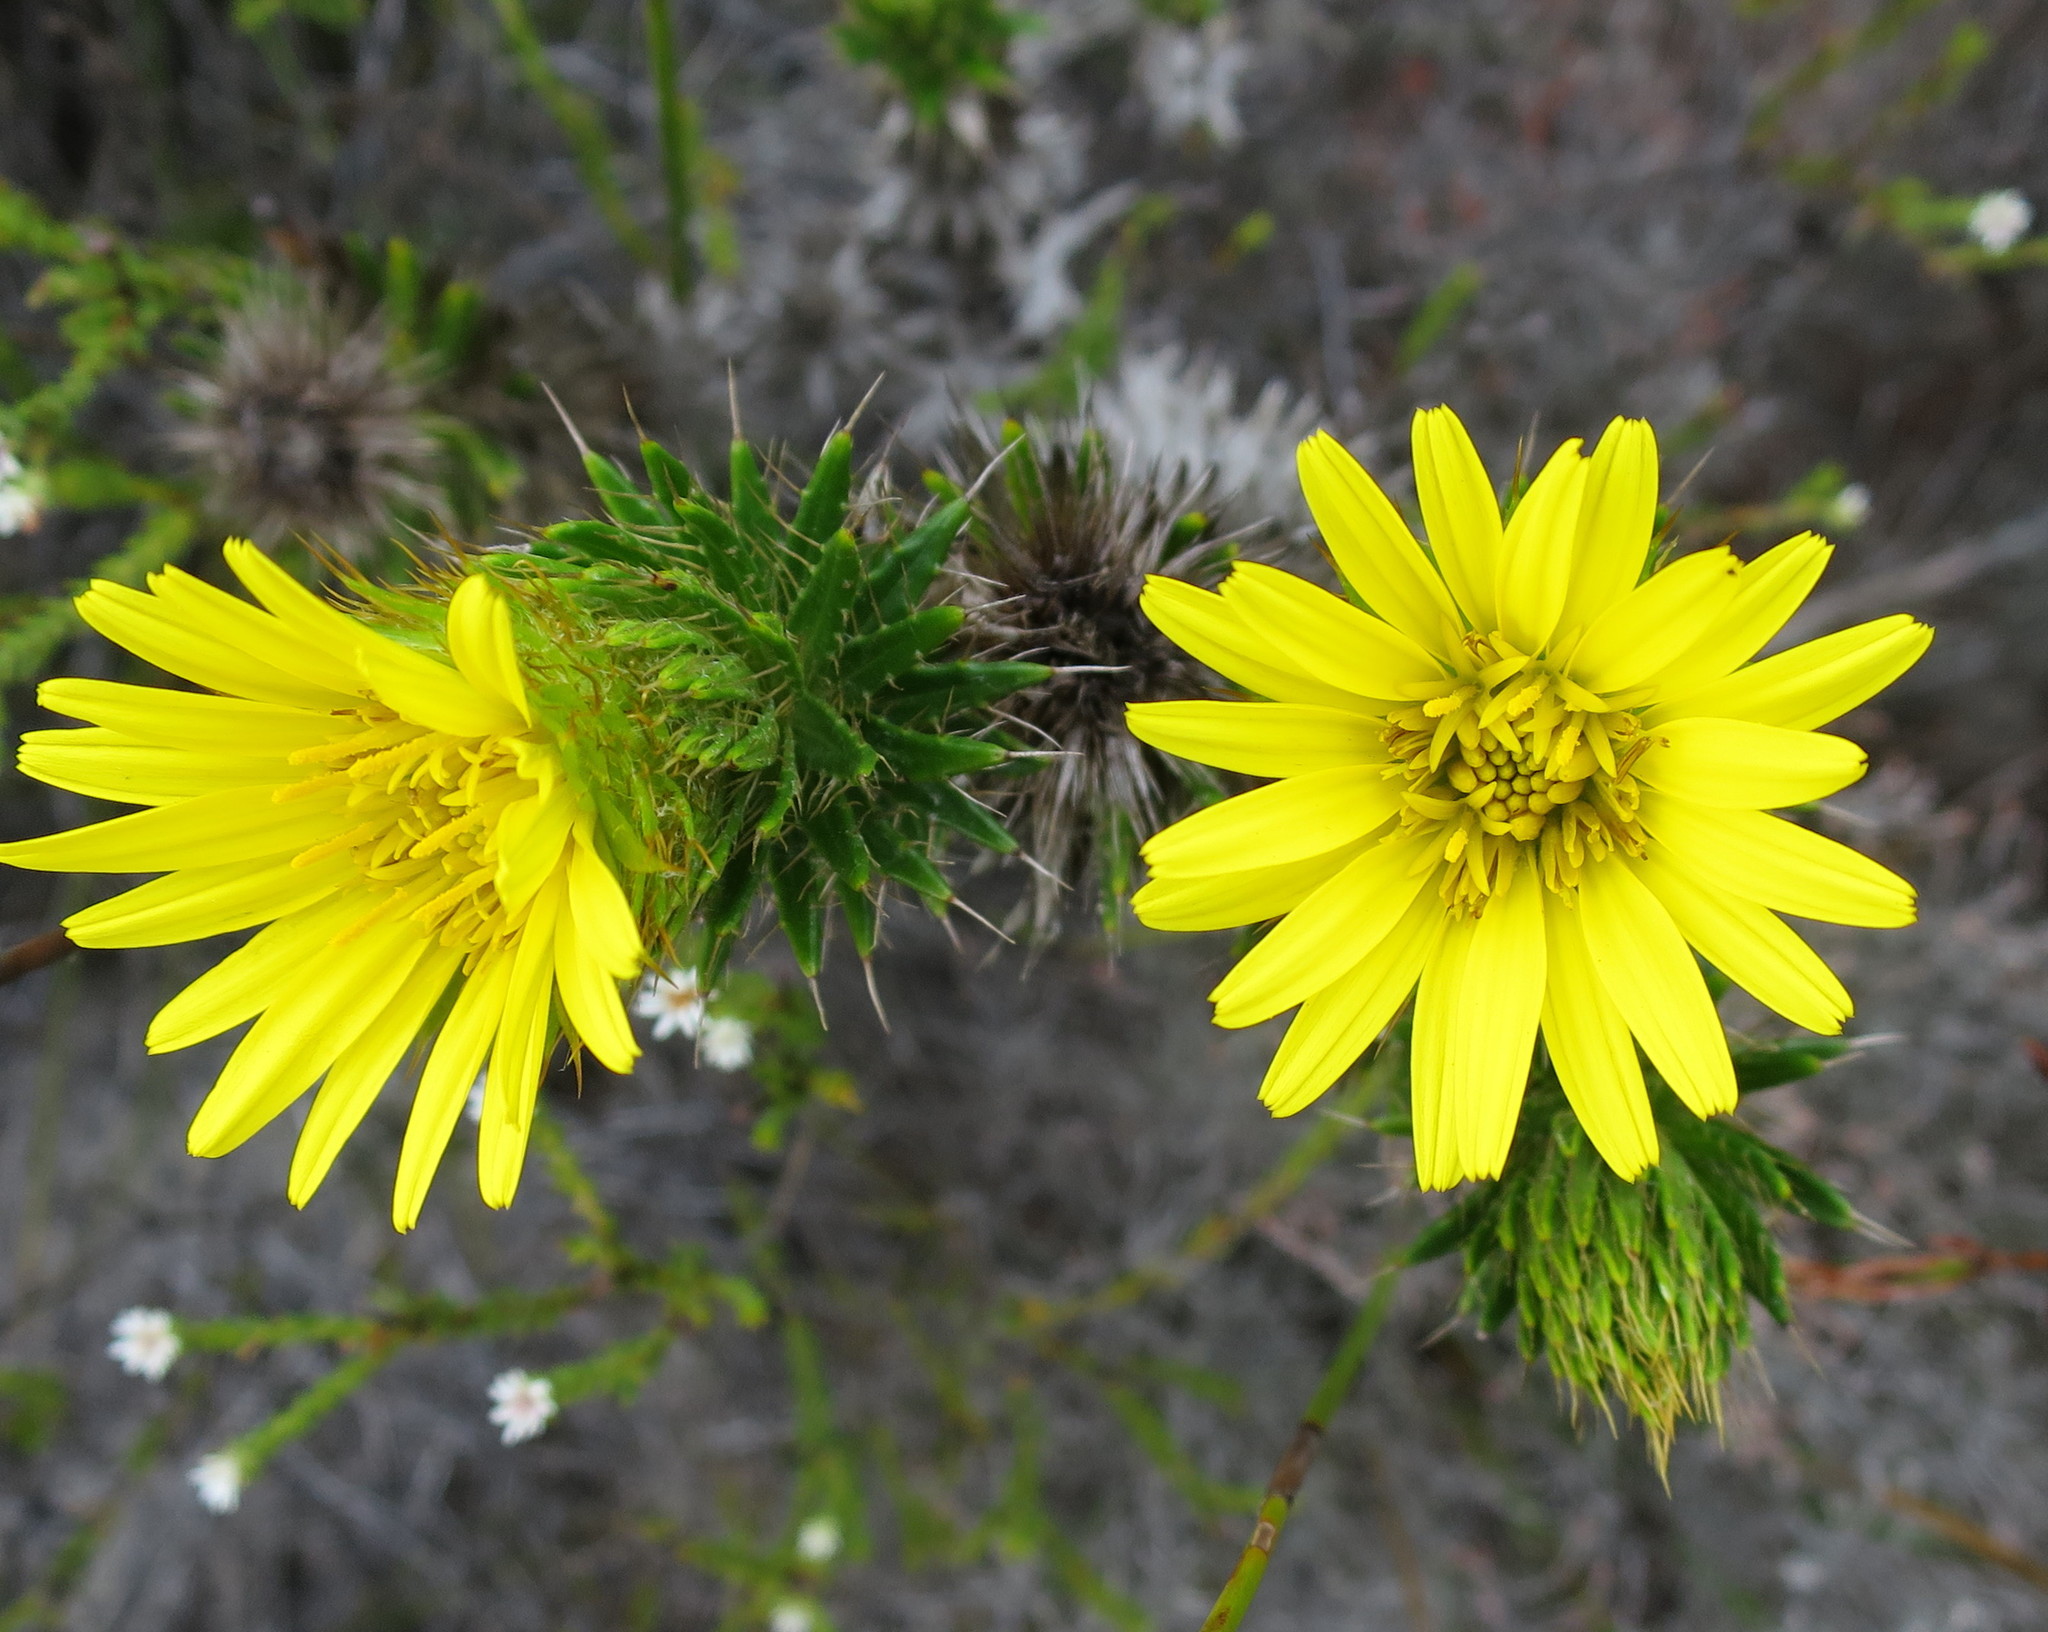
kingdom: Plantae
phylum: Tracheophyta
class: Magnoliopsida
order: Asterales
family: Asteraceae
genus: Cullumia
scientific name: Cullumia carlinoides
